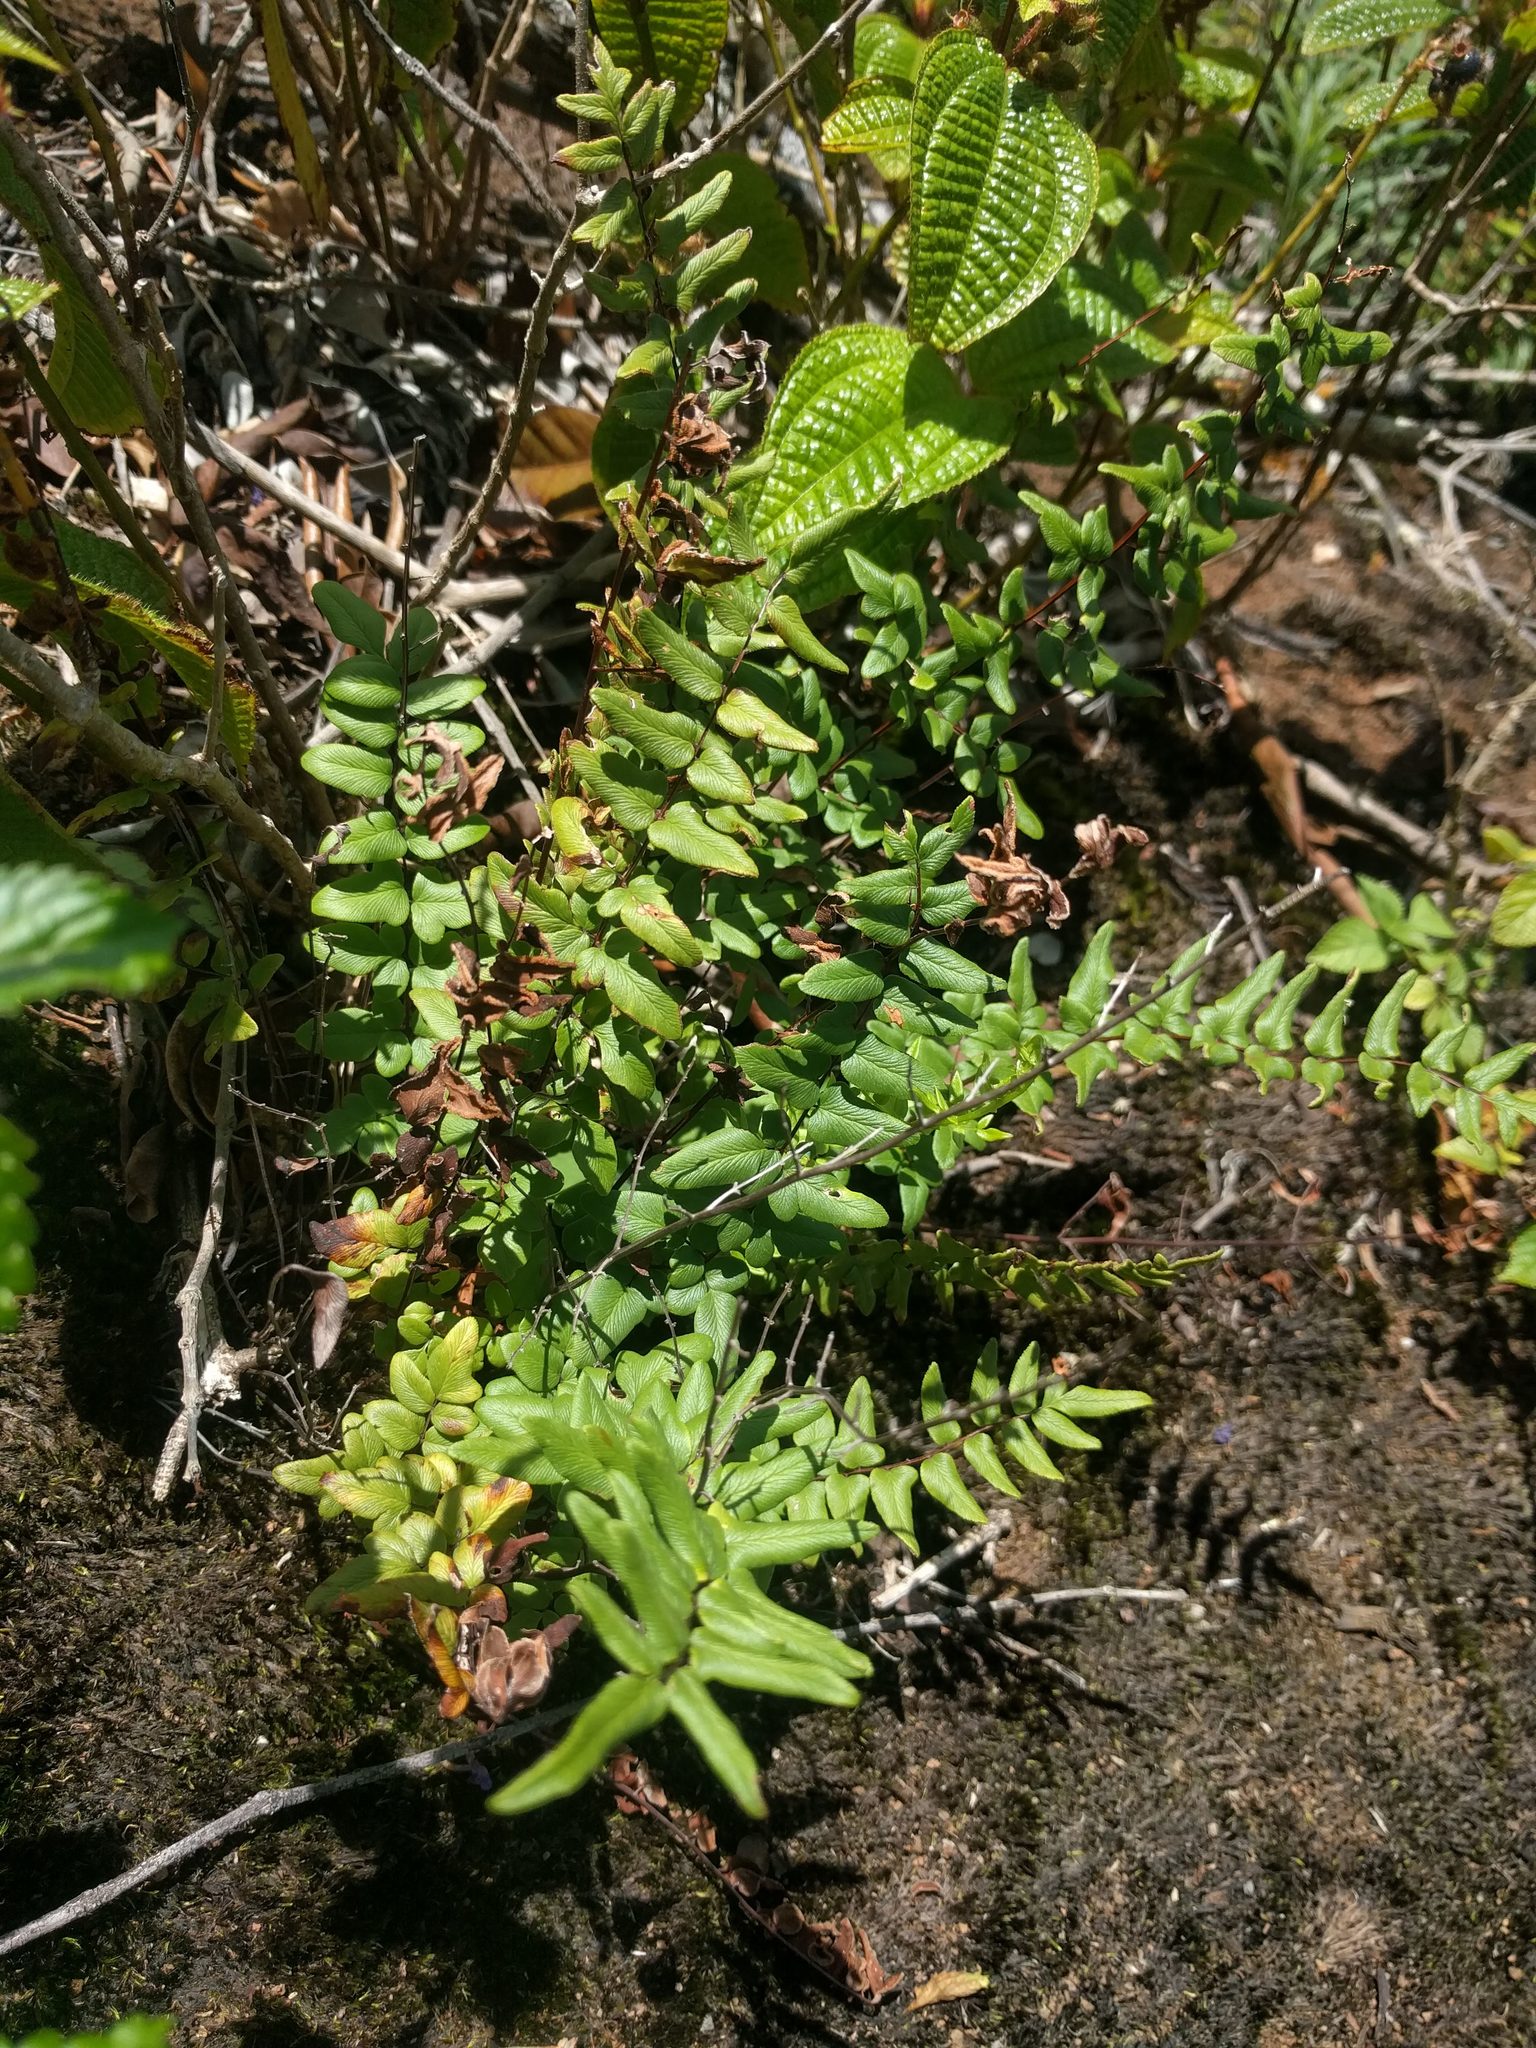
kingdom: Plantae
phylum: Tracheophyta
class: Polypodiopsida
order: Polypodiales
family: Pteridaceae
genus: Cheilanthes
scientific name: Cheilanthes viridis
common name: Green cliffbrake
